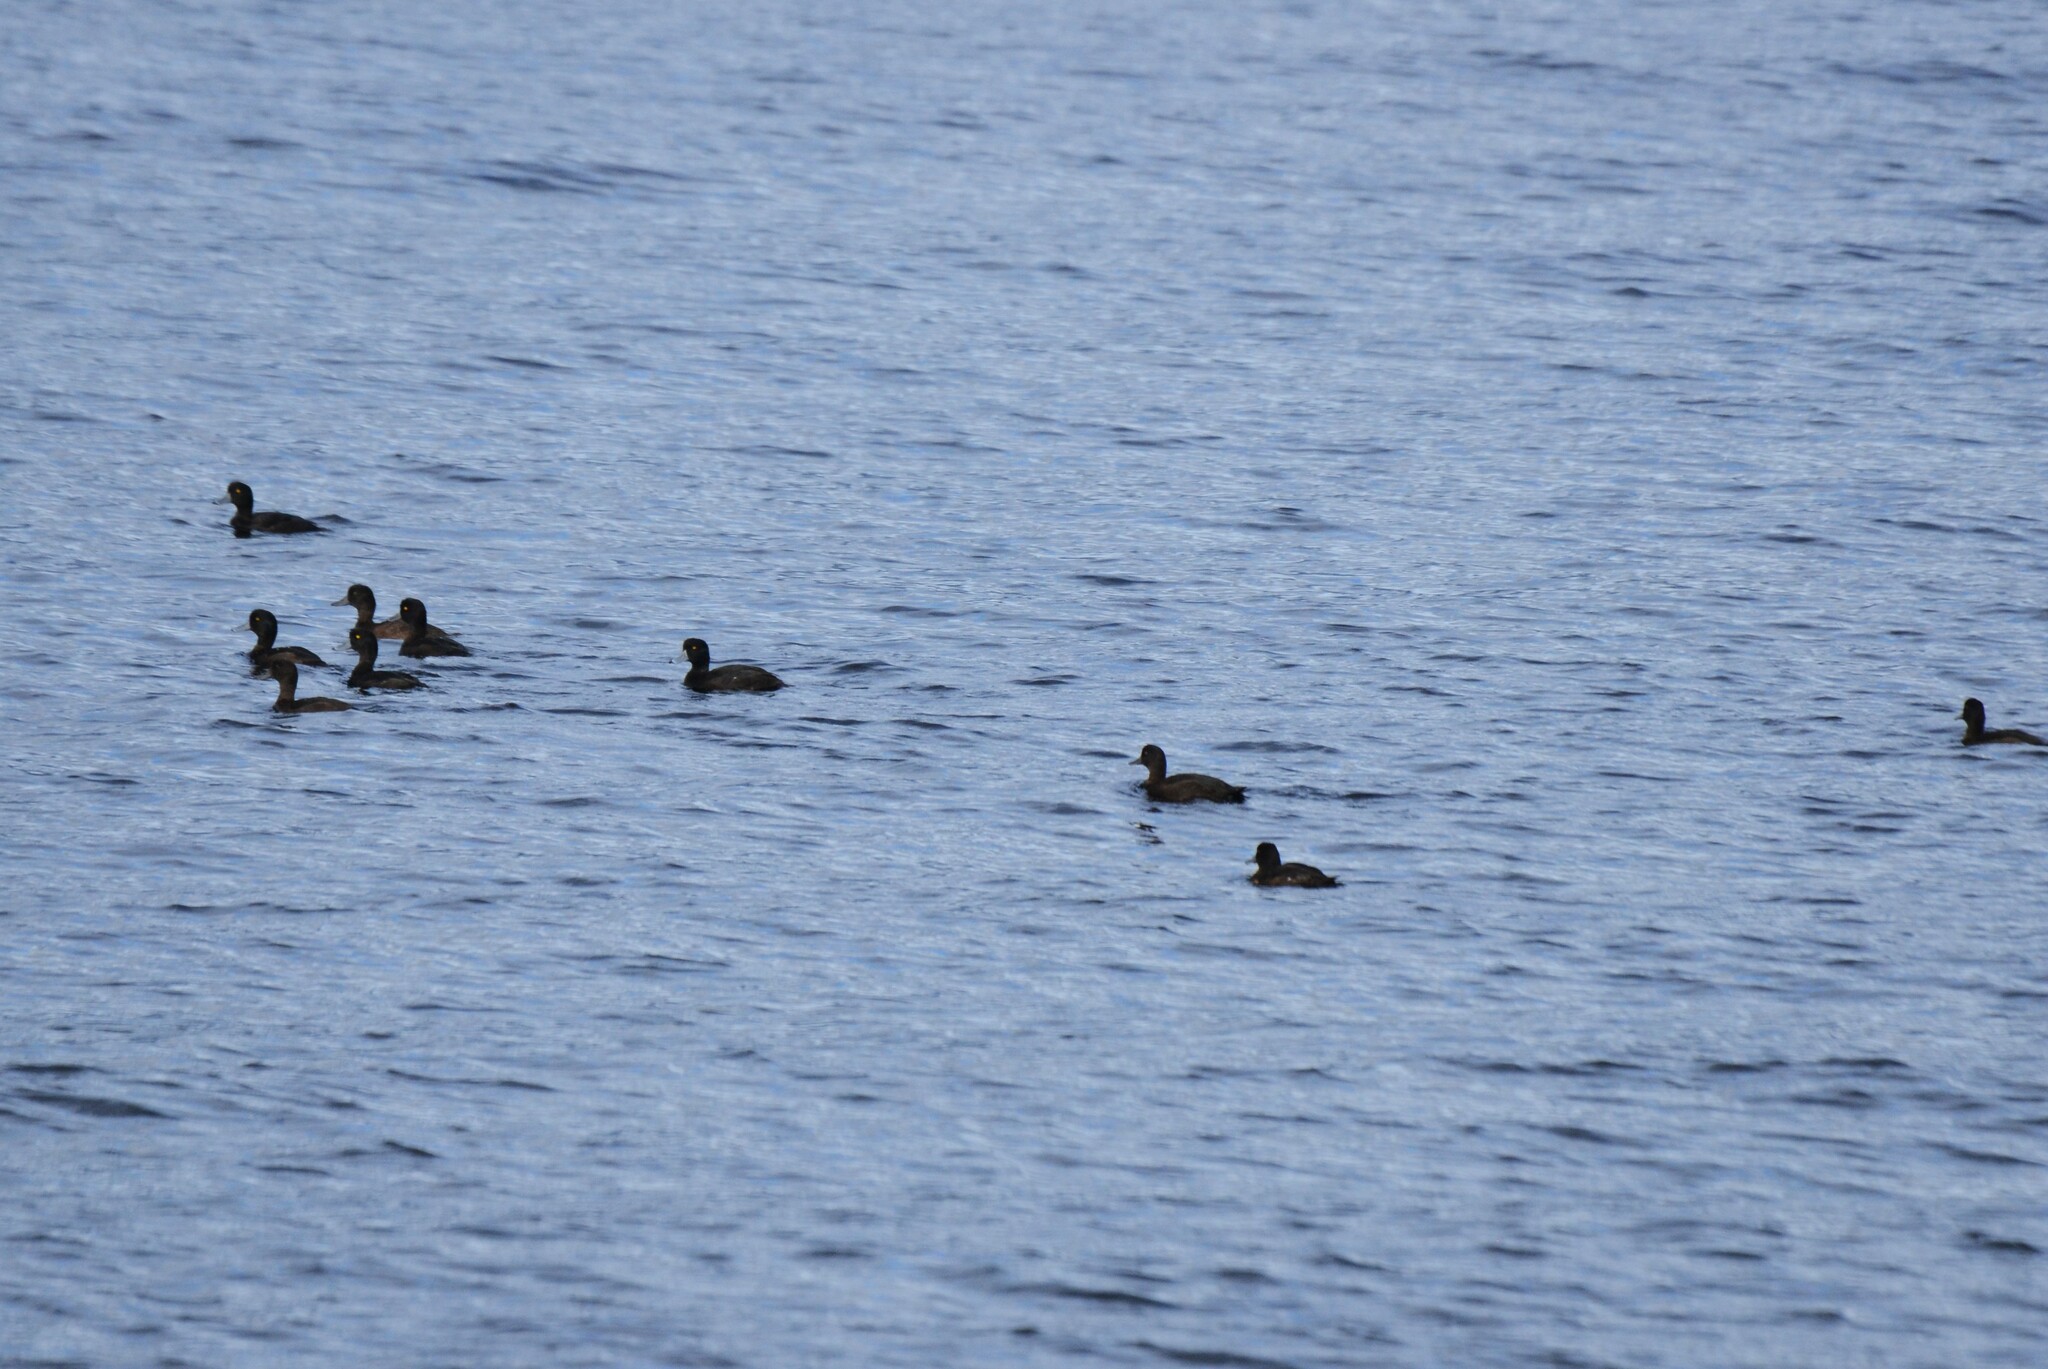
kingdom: Animalia
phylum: Chordata
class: Aves
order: Anseriformes
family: Anatidae
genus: Aythya
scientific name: Aythya novaeseelandiae
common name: New zealand scaup
